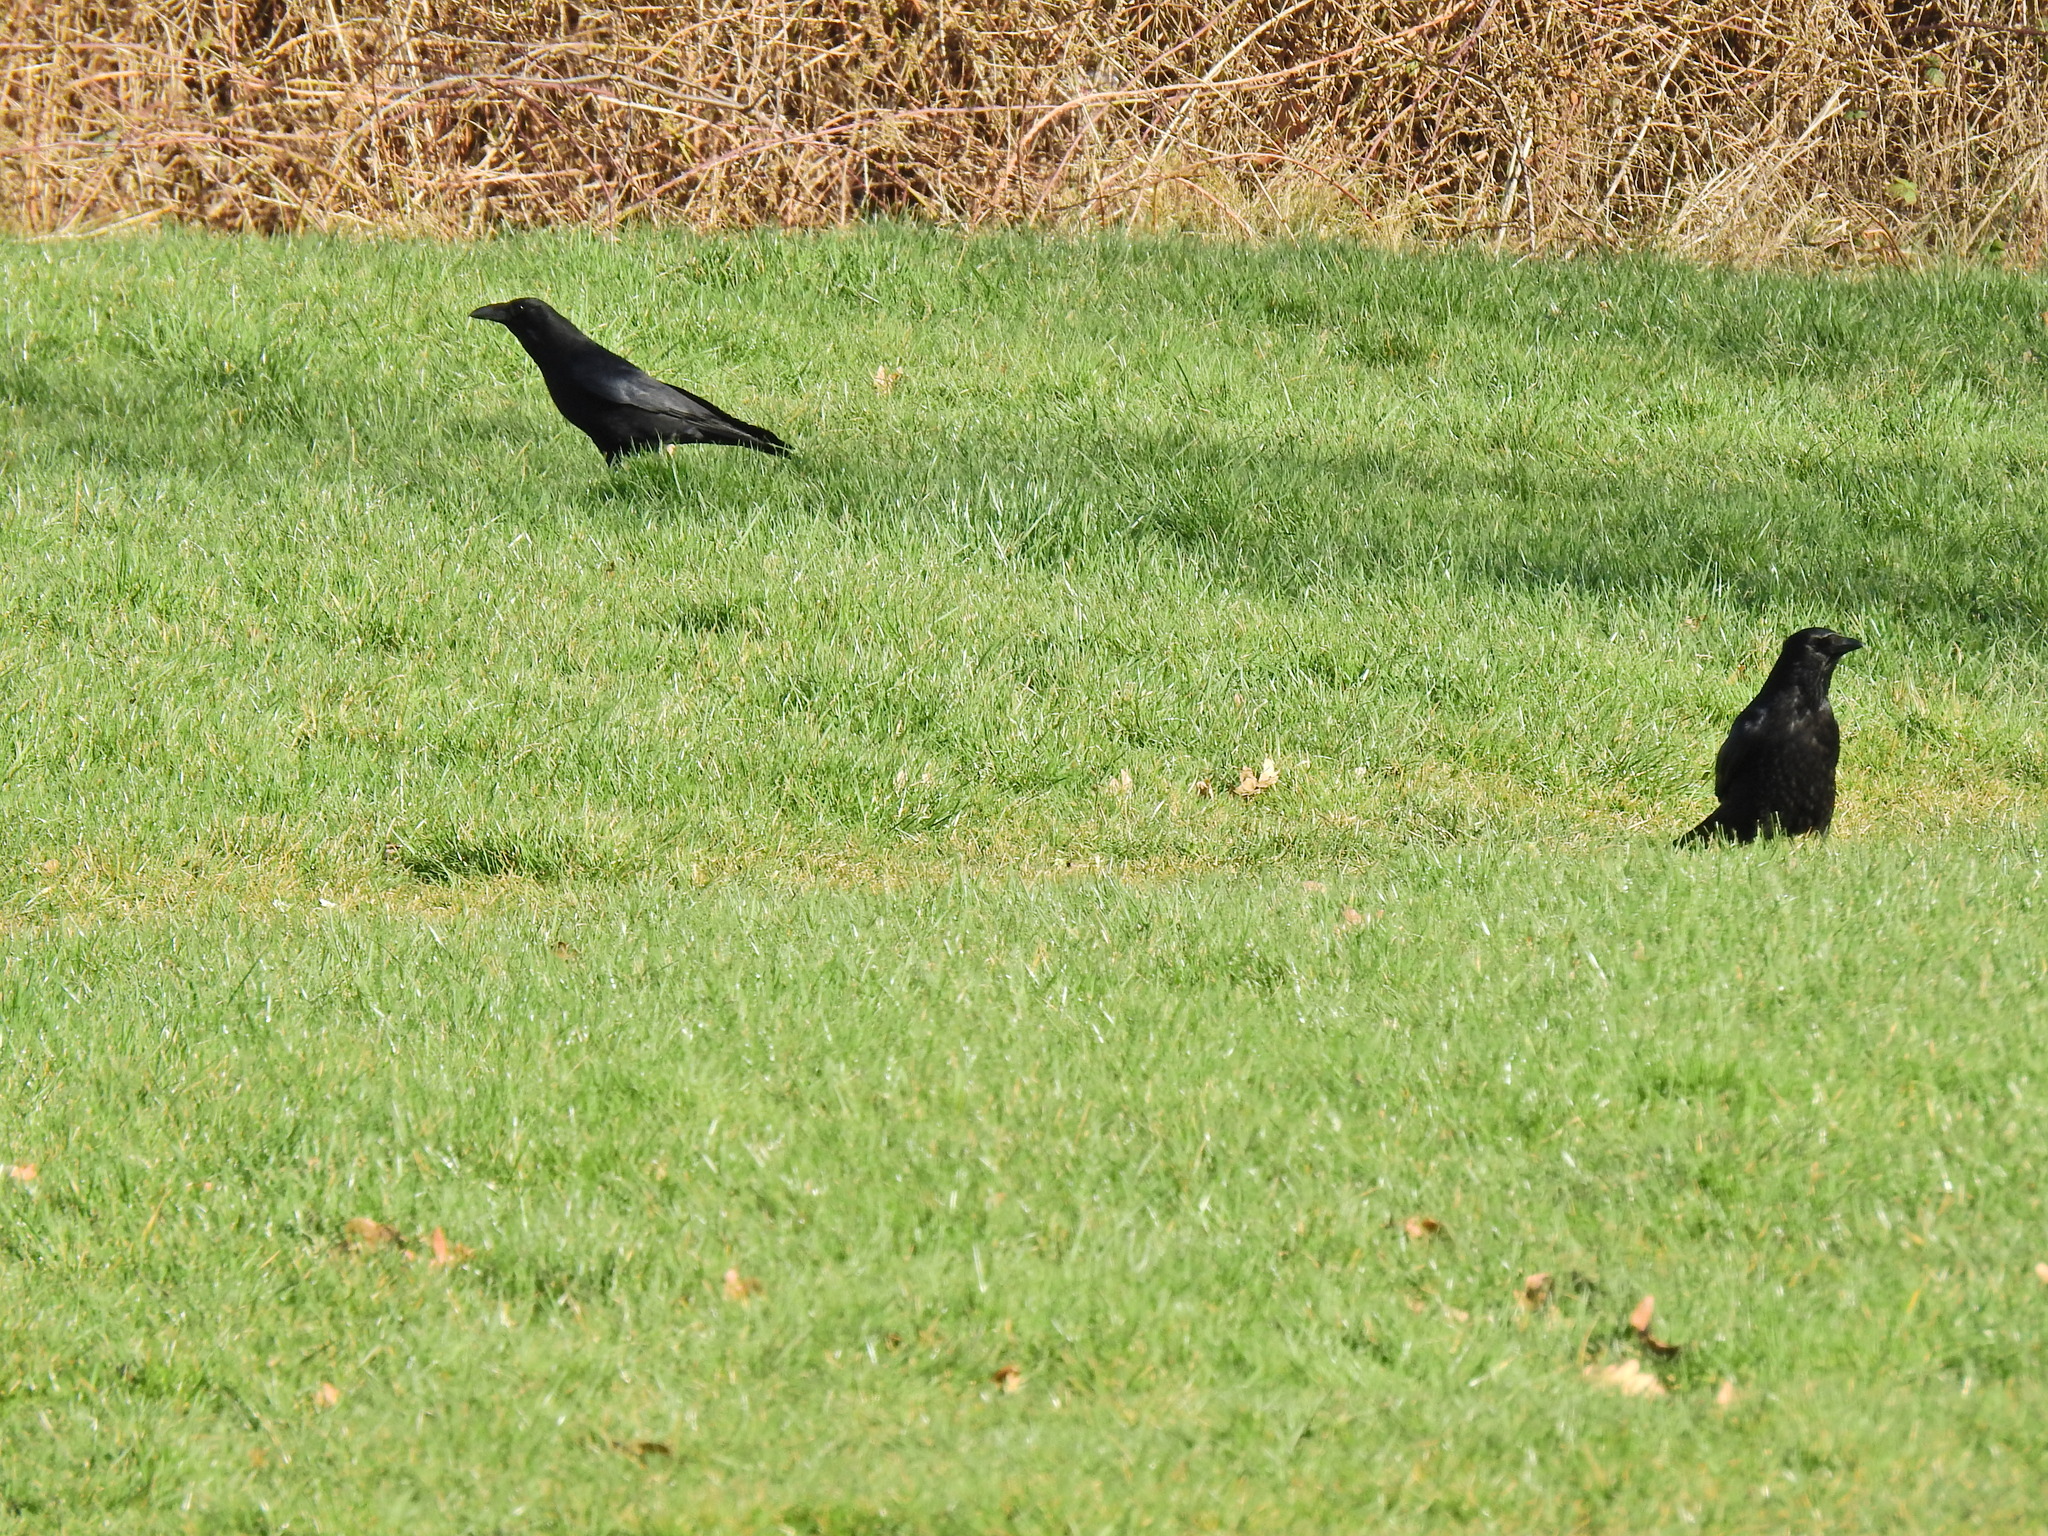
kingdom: Animalia
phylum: Chordata
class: Aves
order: Passeriformes
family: Corvidae
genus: Corvus
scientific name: Corvus corone
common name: Carrion crow
